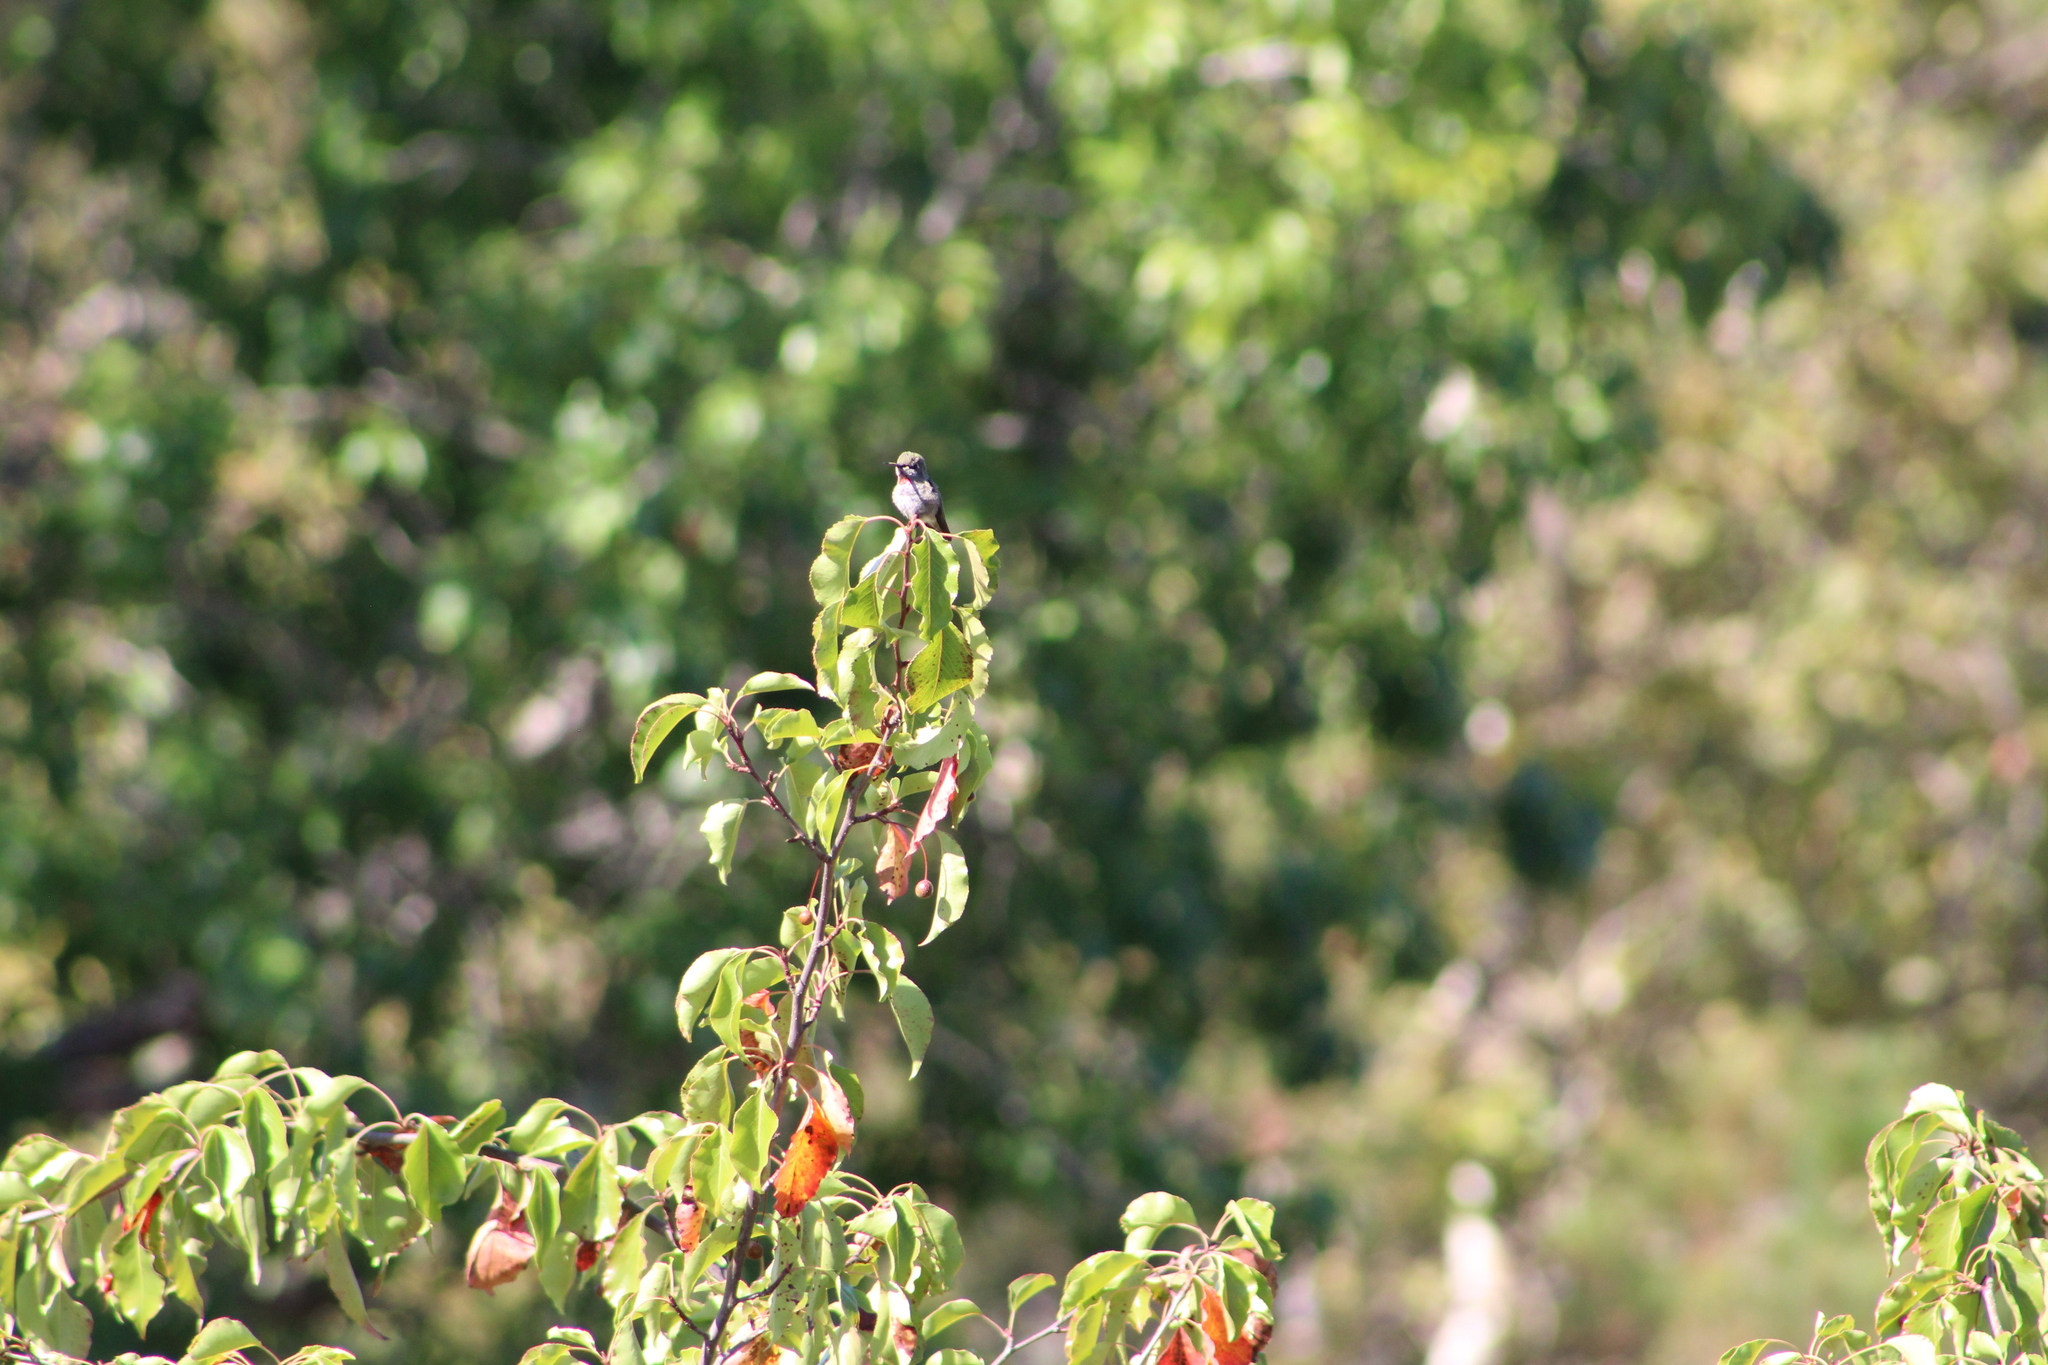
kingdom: Animalia
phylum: Chordata
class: Aves
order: Apodiformes
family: Trochilidae
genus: Calypte
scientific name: Calypte anna
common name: Anna's hummingbird
